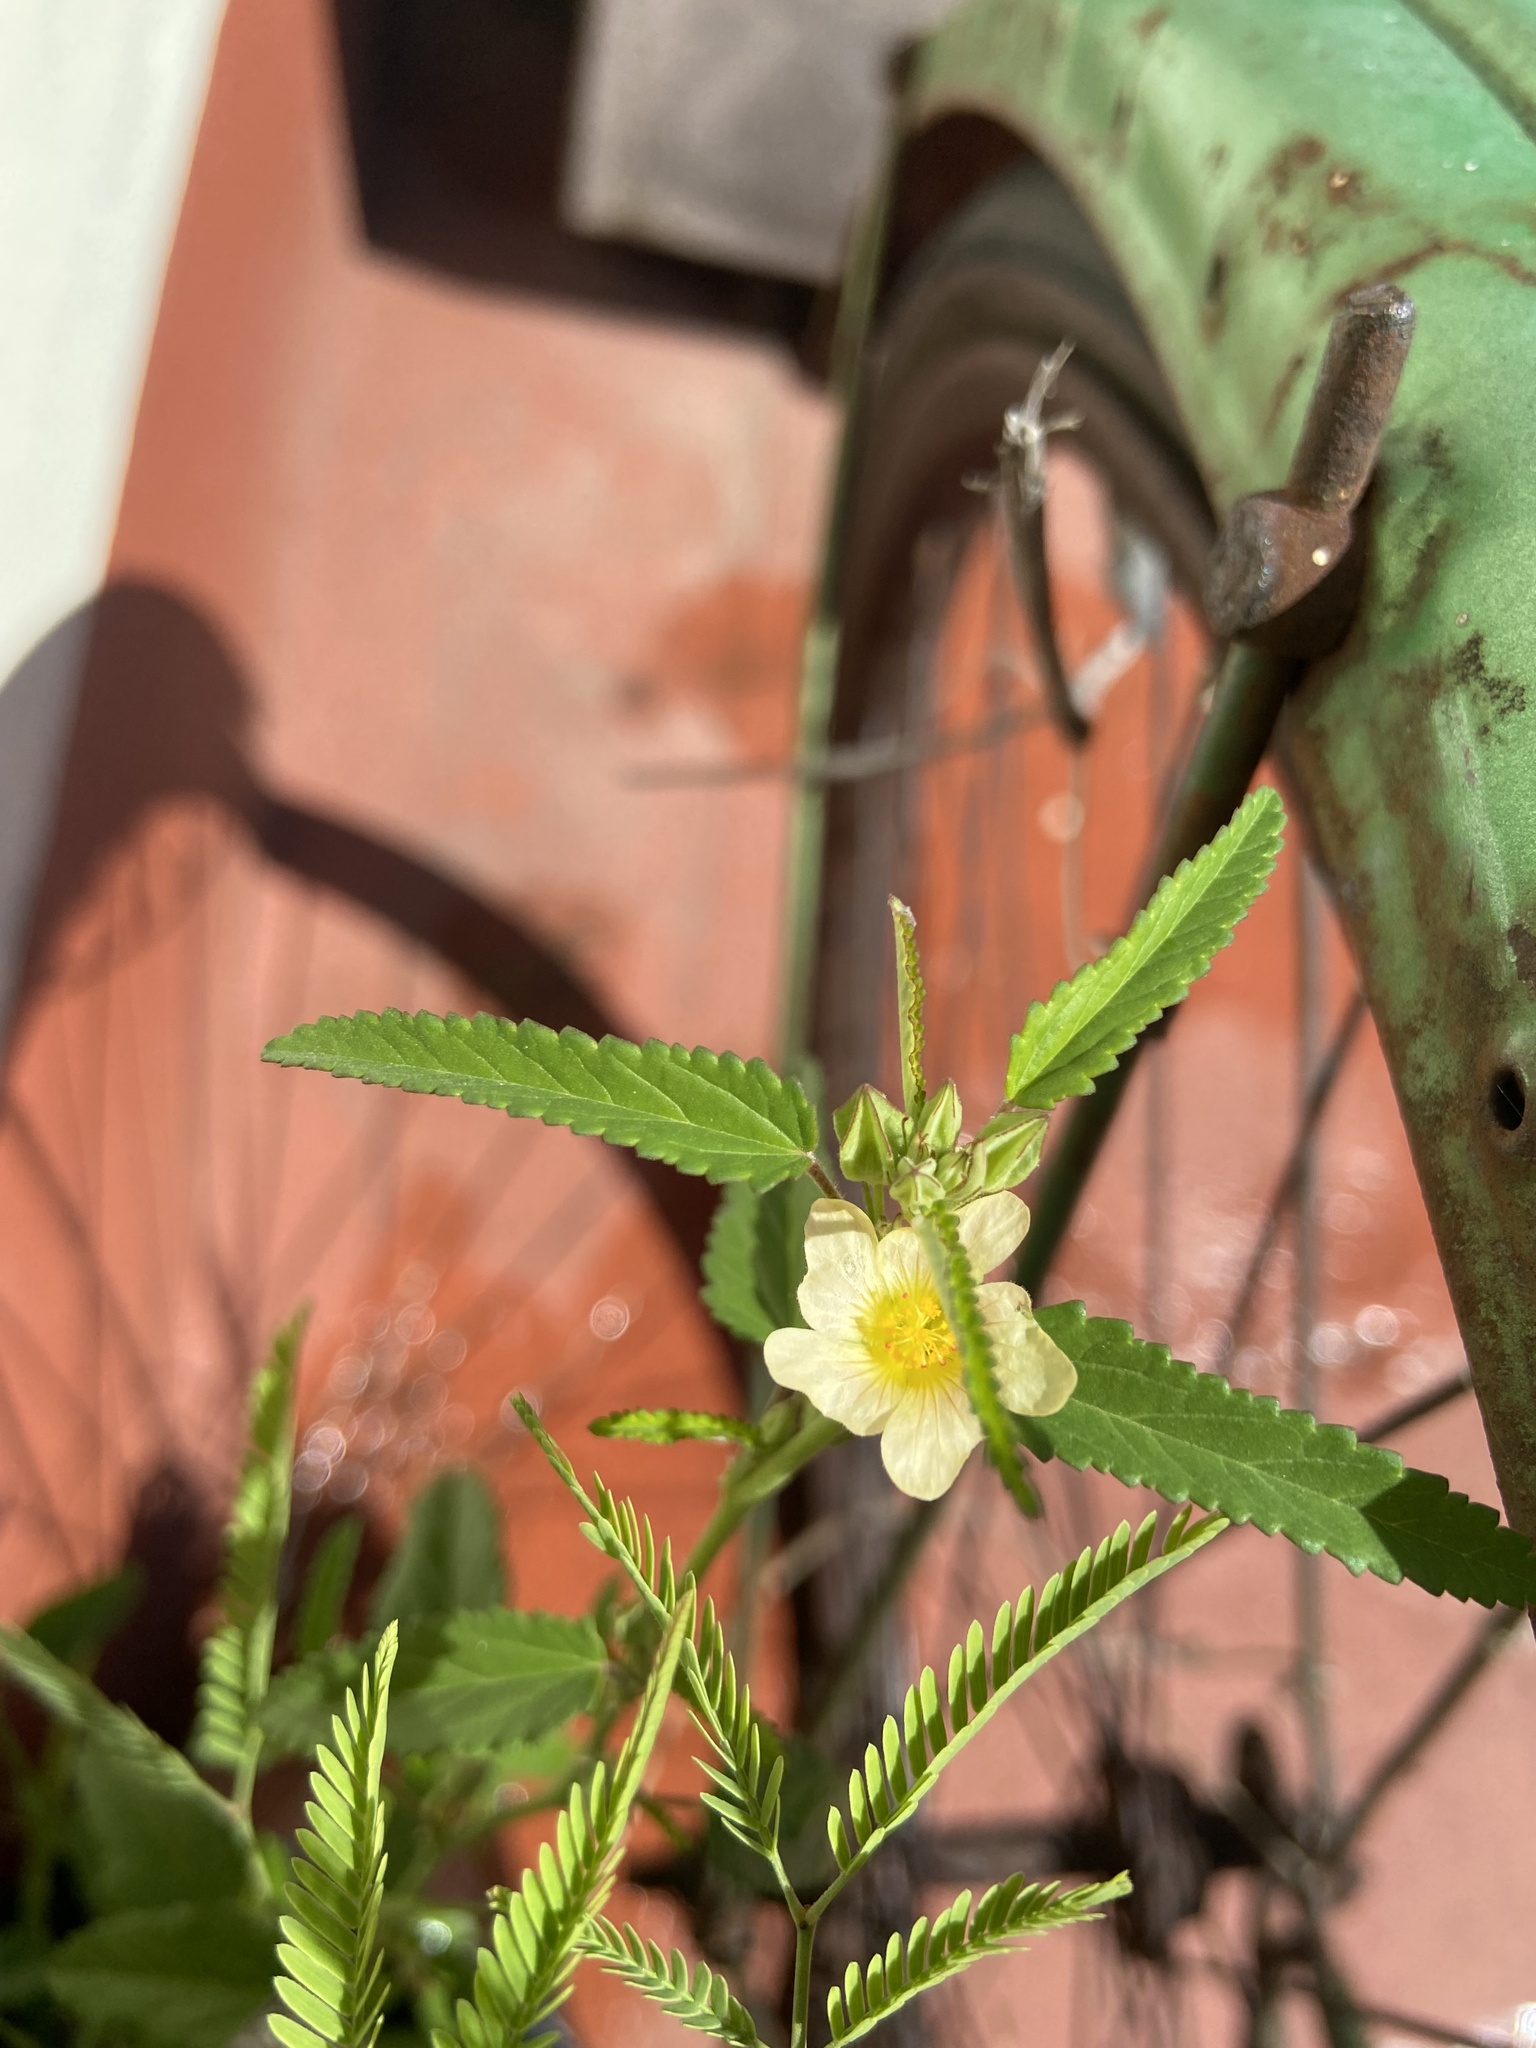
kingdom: Plantae
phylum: Tracheophyta
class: Magnoliopsida
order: Malvales
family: Malvaceae
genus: Sida
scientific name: Sida rhombifolia
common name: Queensland-hemp
